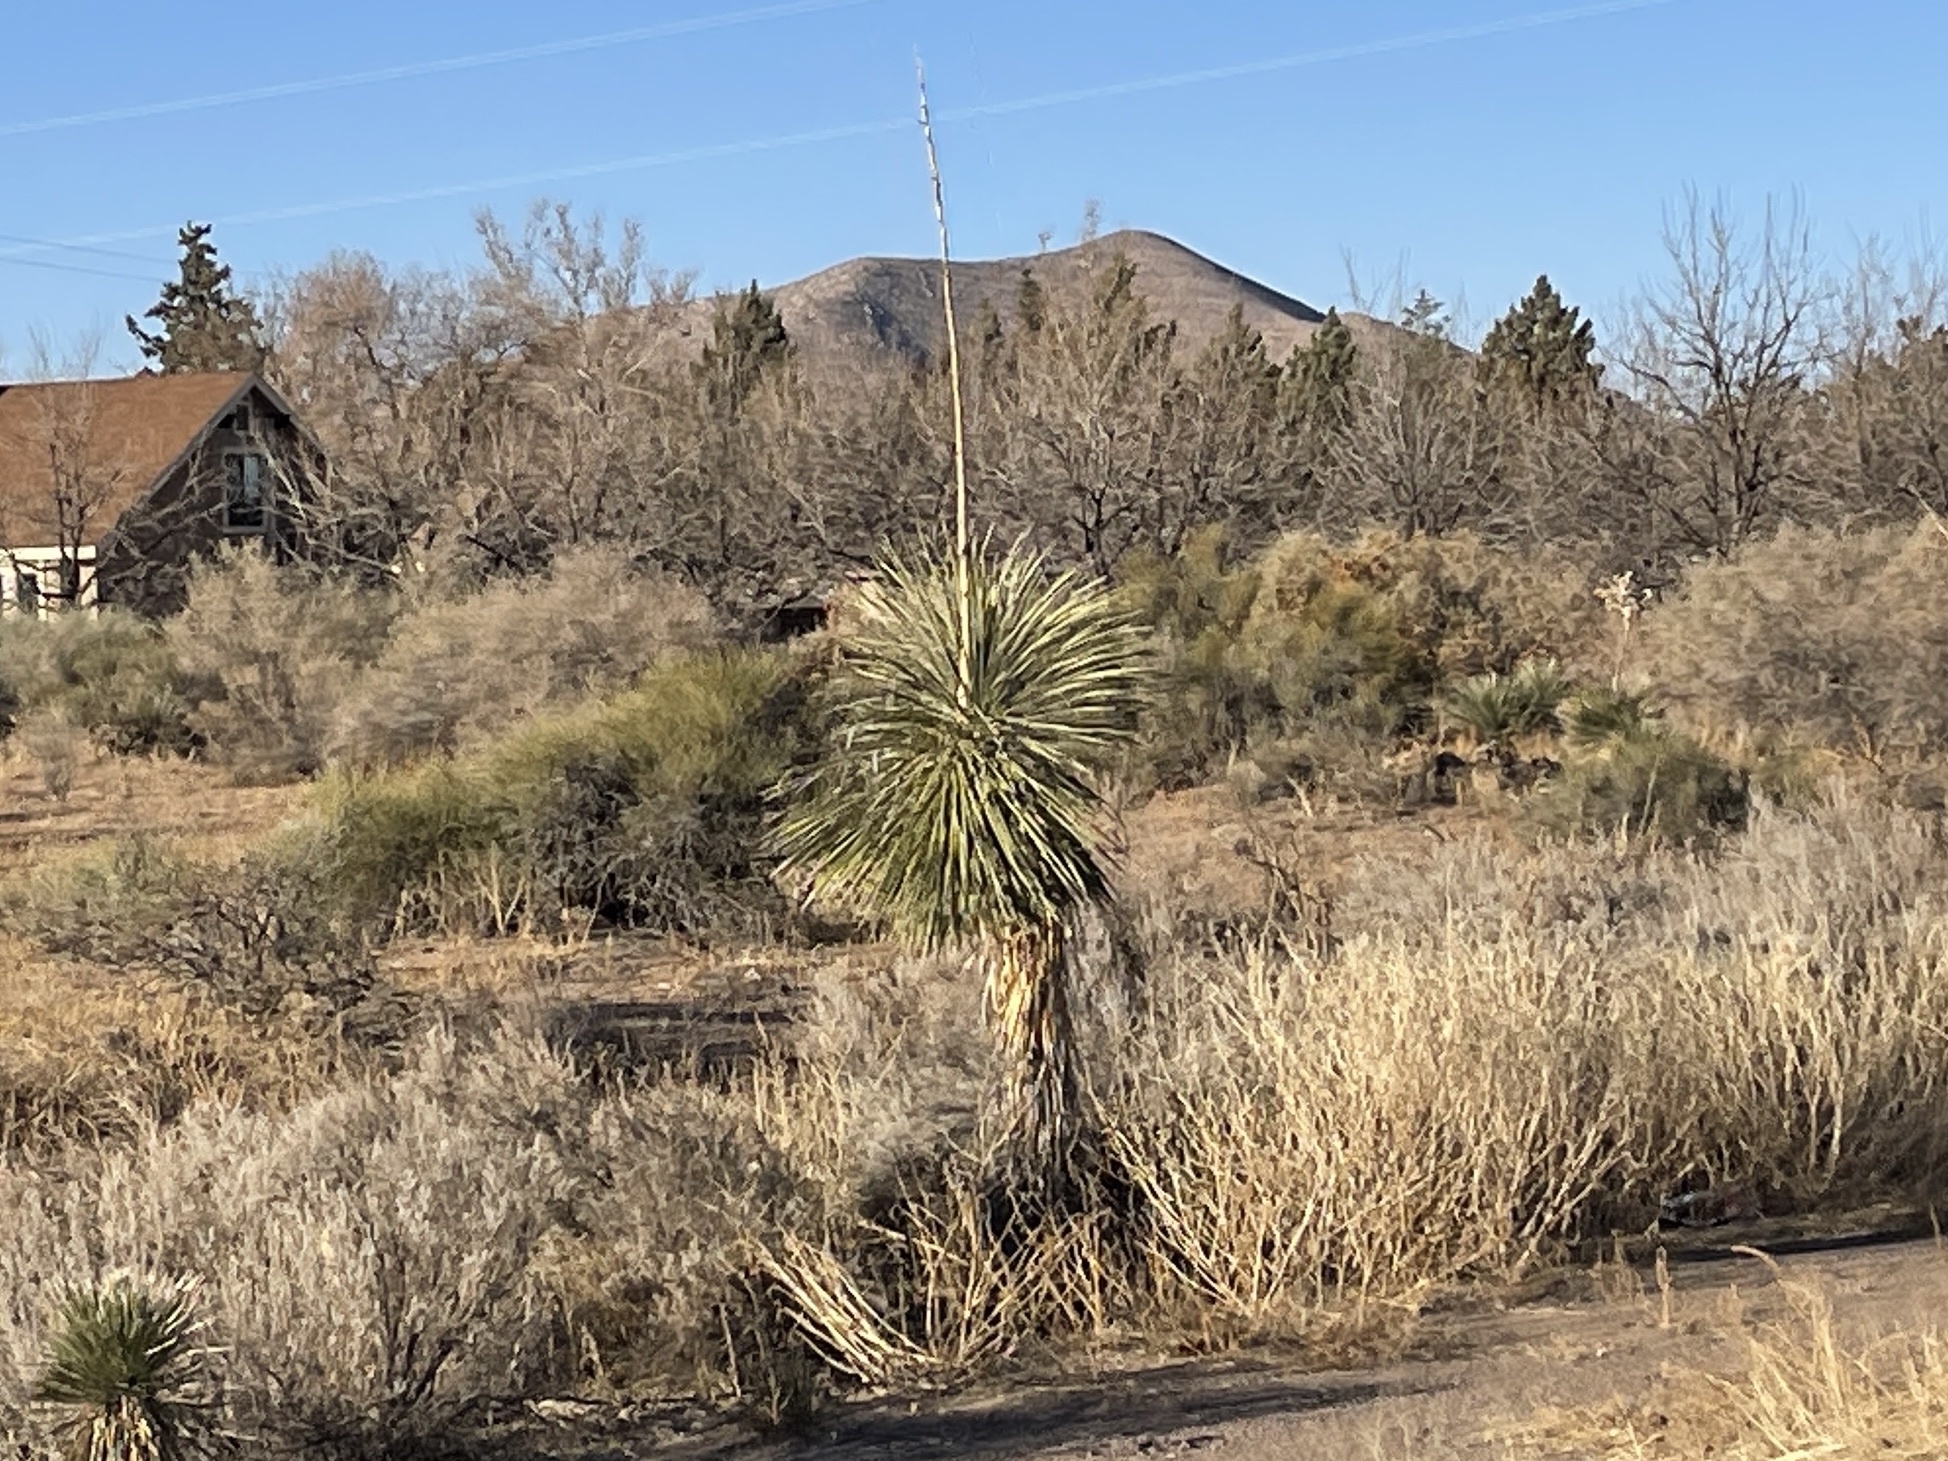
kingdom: Plantae
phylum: Tracheophyta
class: Liliopsida
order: Asparagales
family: Asparagaceae
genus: Yucca
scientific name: Yucca elata
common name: Palmella
